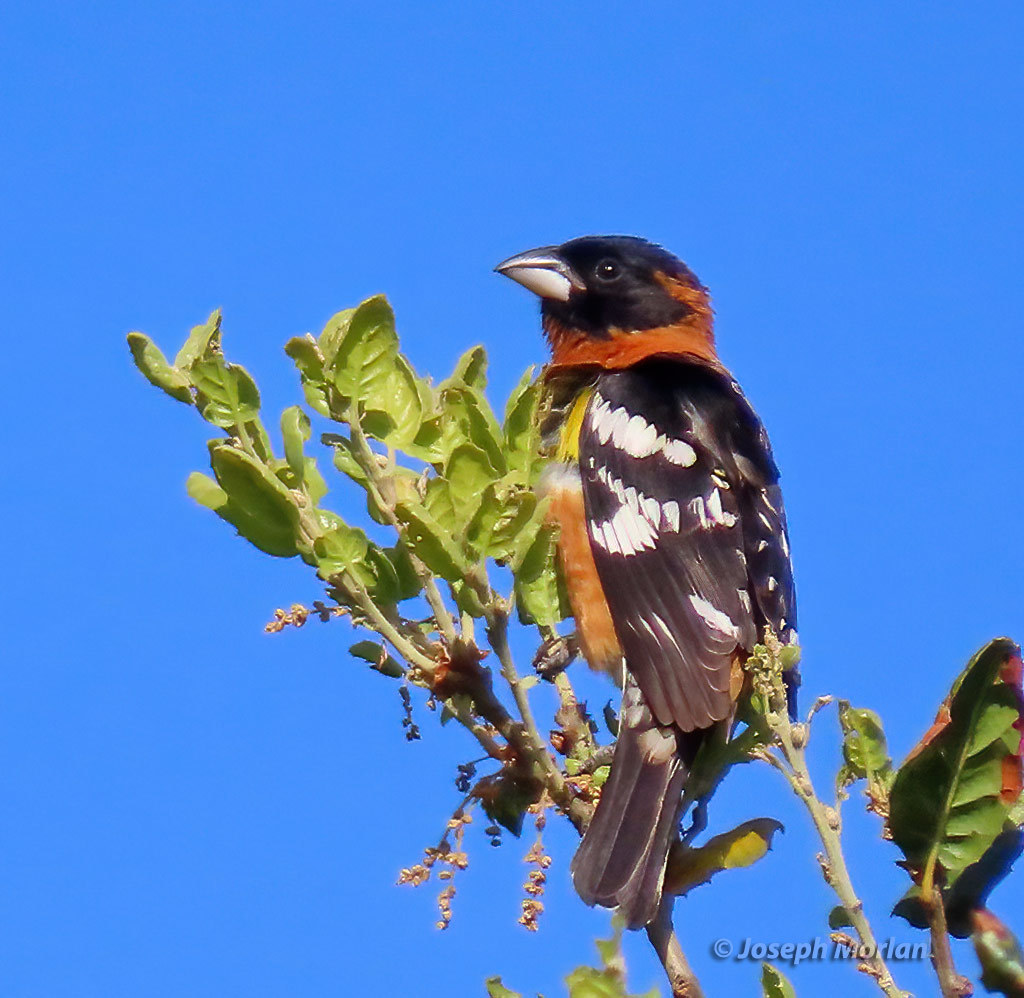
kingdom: Animalia
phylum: Chordata
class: Aves
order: Passeriformes
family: Cardinalidae
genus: Pheucticus
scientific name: Pheucticus melanocephalus
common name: Black-headed grosbeak
